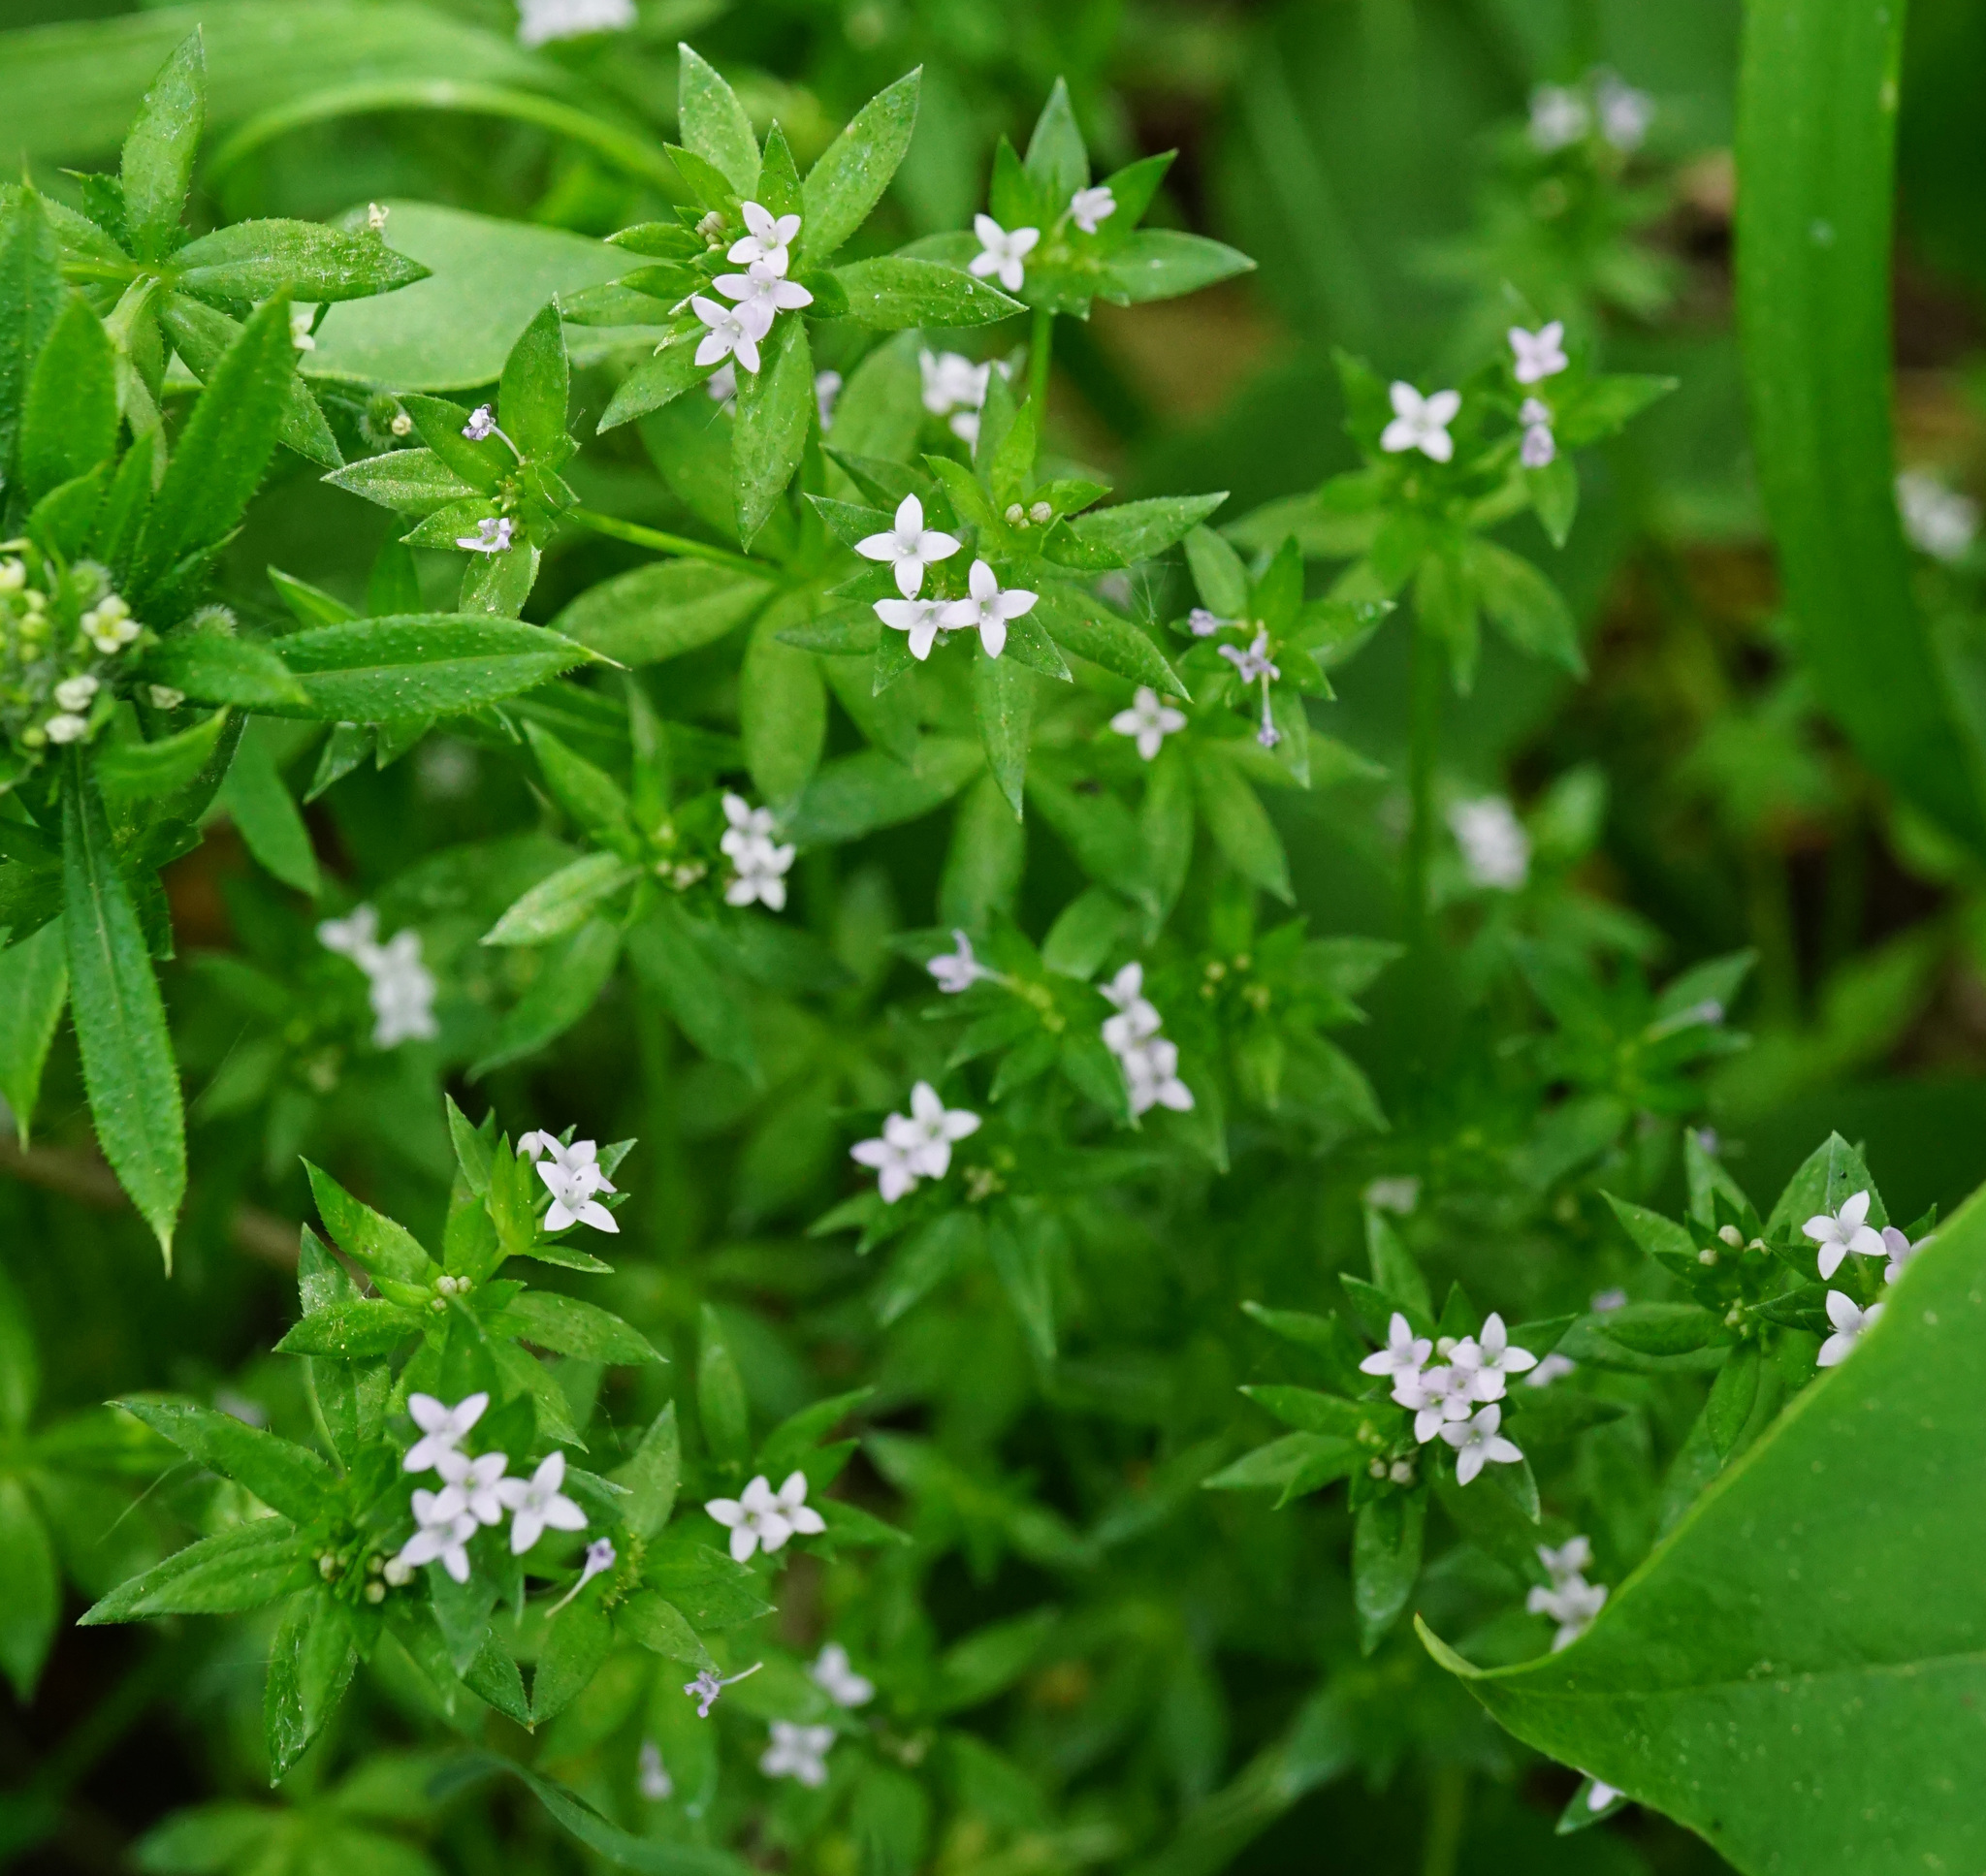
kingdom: Plantae
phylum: Tracheophyta
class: Magnoliopsida
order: Gentianales
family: Rubiaceae
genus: Sherardia
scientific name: Sherardia arvensis
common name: Field madder
